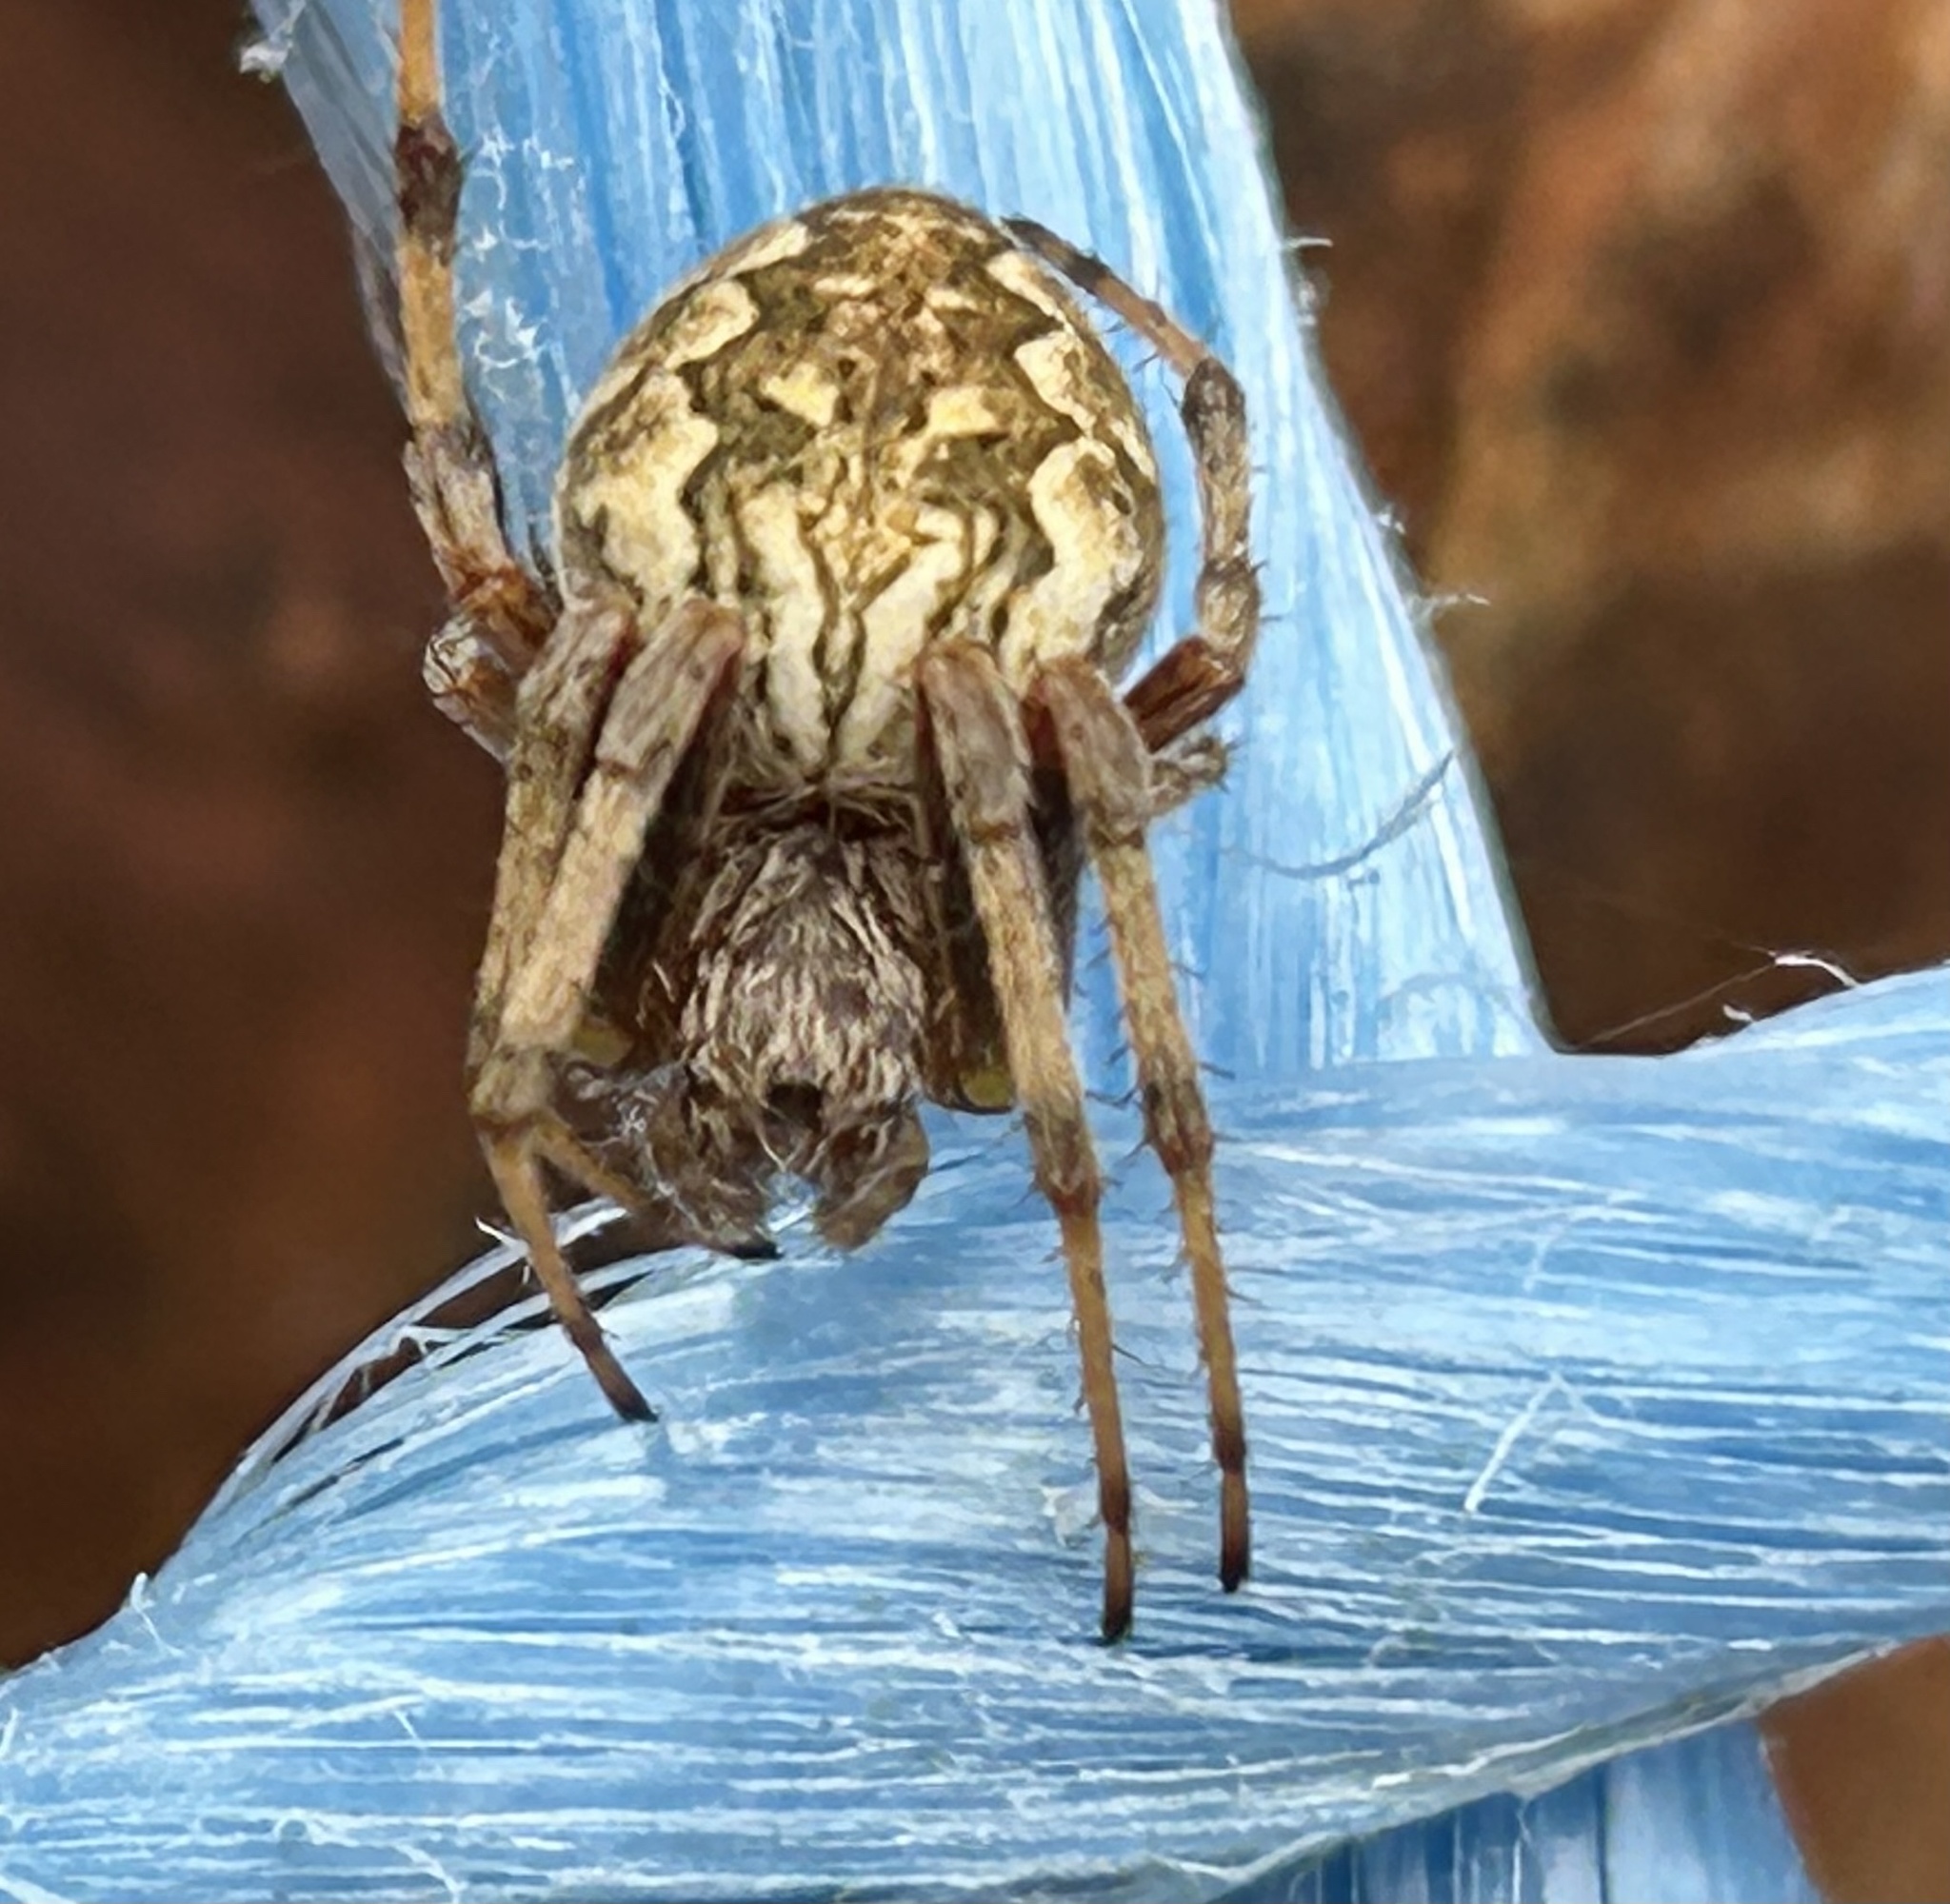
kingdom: Animalia
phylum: Arthropoda
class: Arachnida
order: Araneae
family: Araneidae
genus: Salsa
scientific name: Salsa fuliginata
